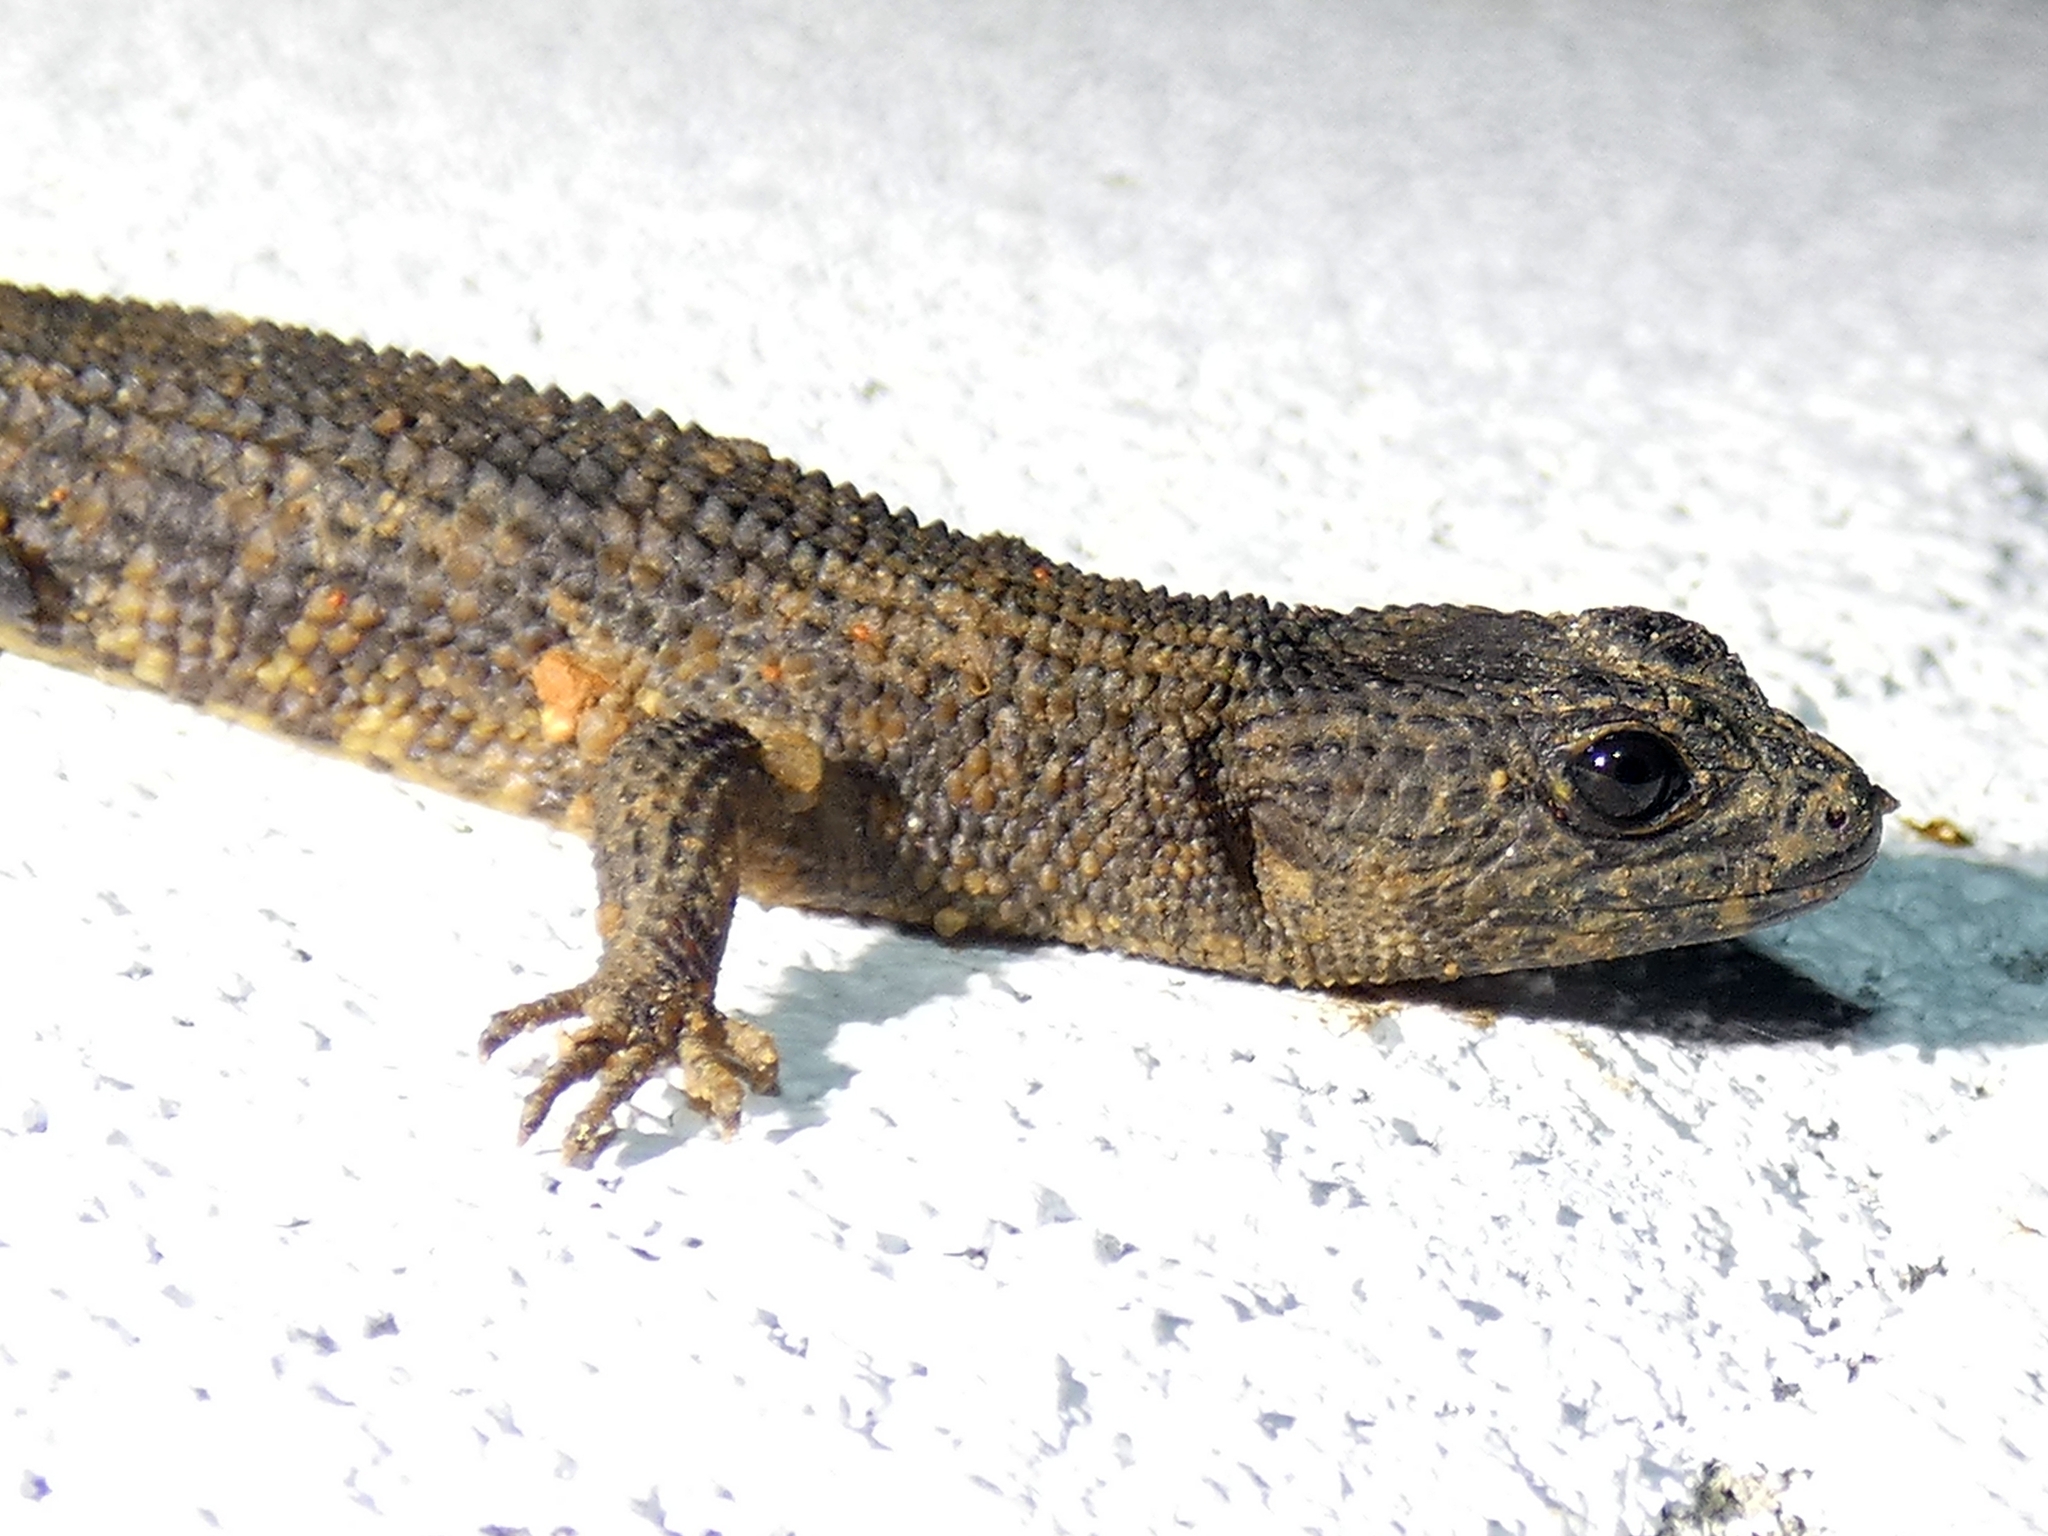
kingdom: Animalia
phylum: Chordata
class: Squamata
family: Scincidae
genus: Gnypetoscincus
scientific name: Gnypetoscincus queenslandiae
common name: Prickly forest skink
